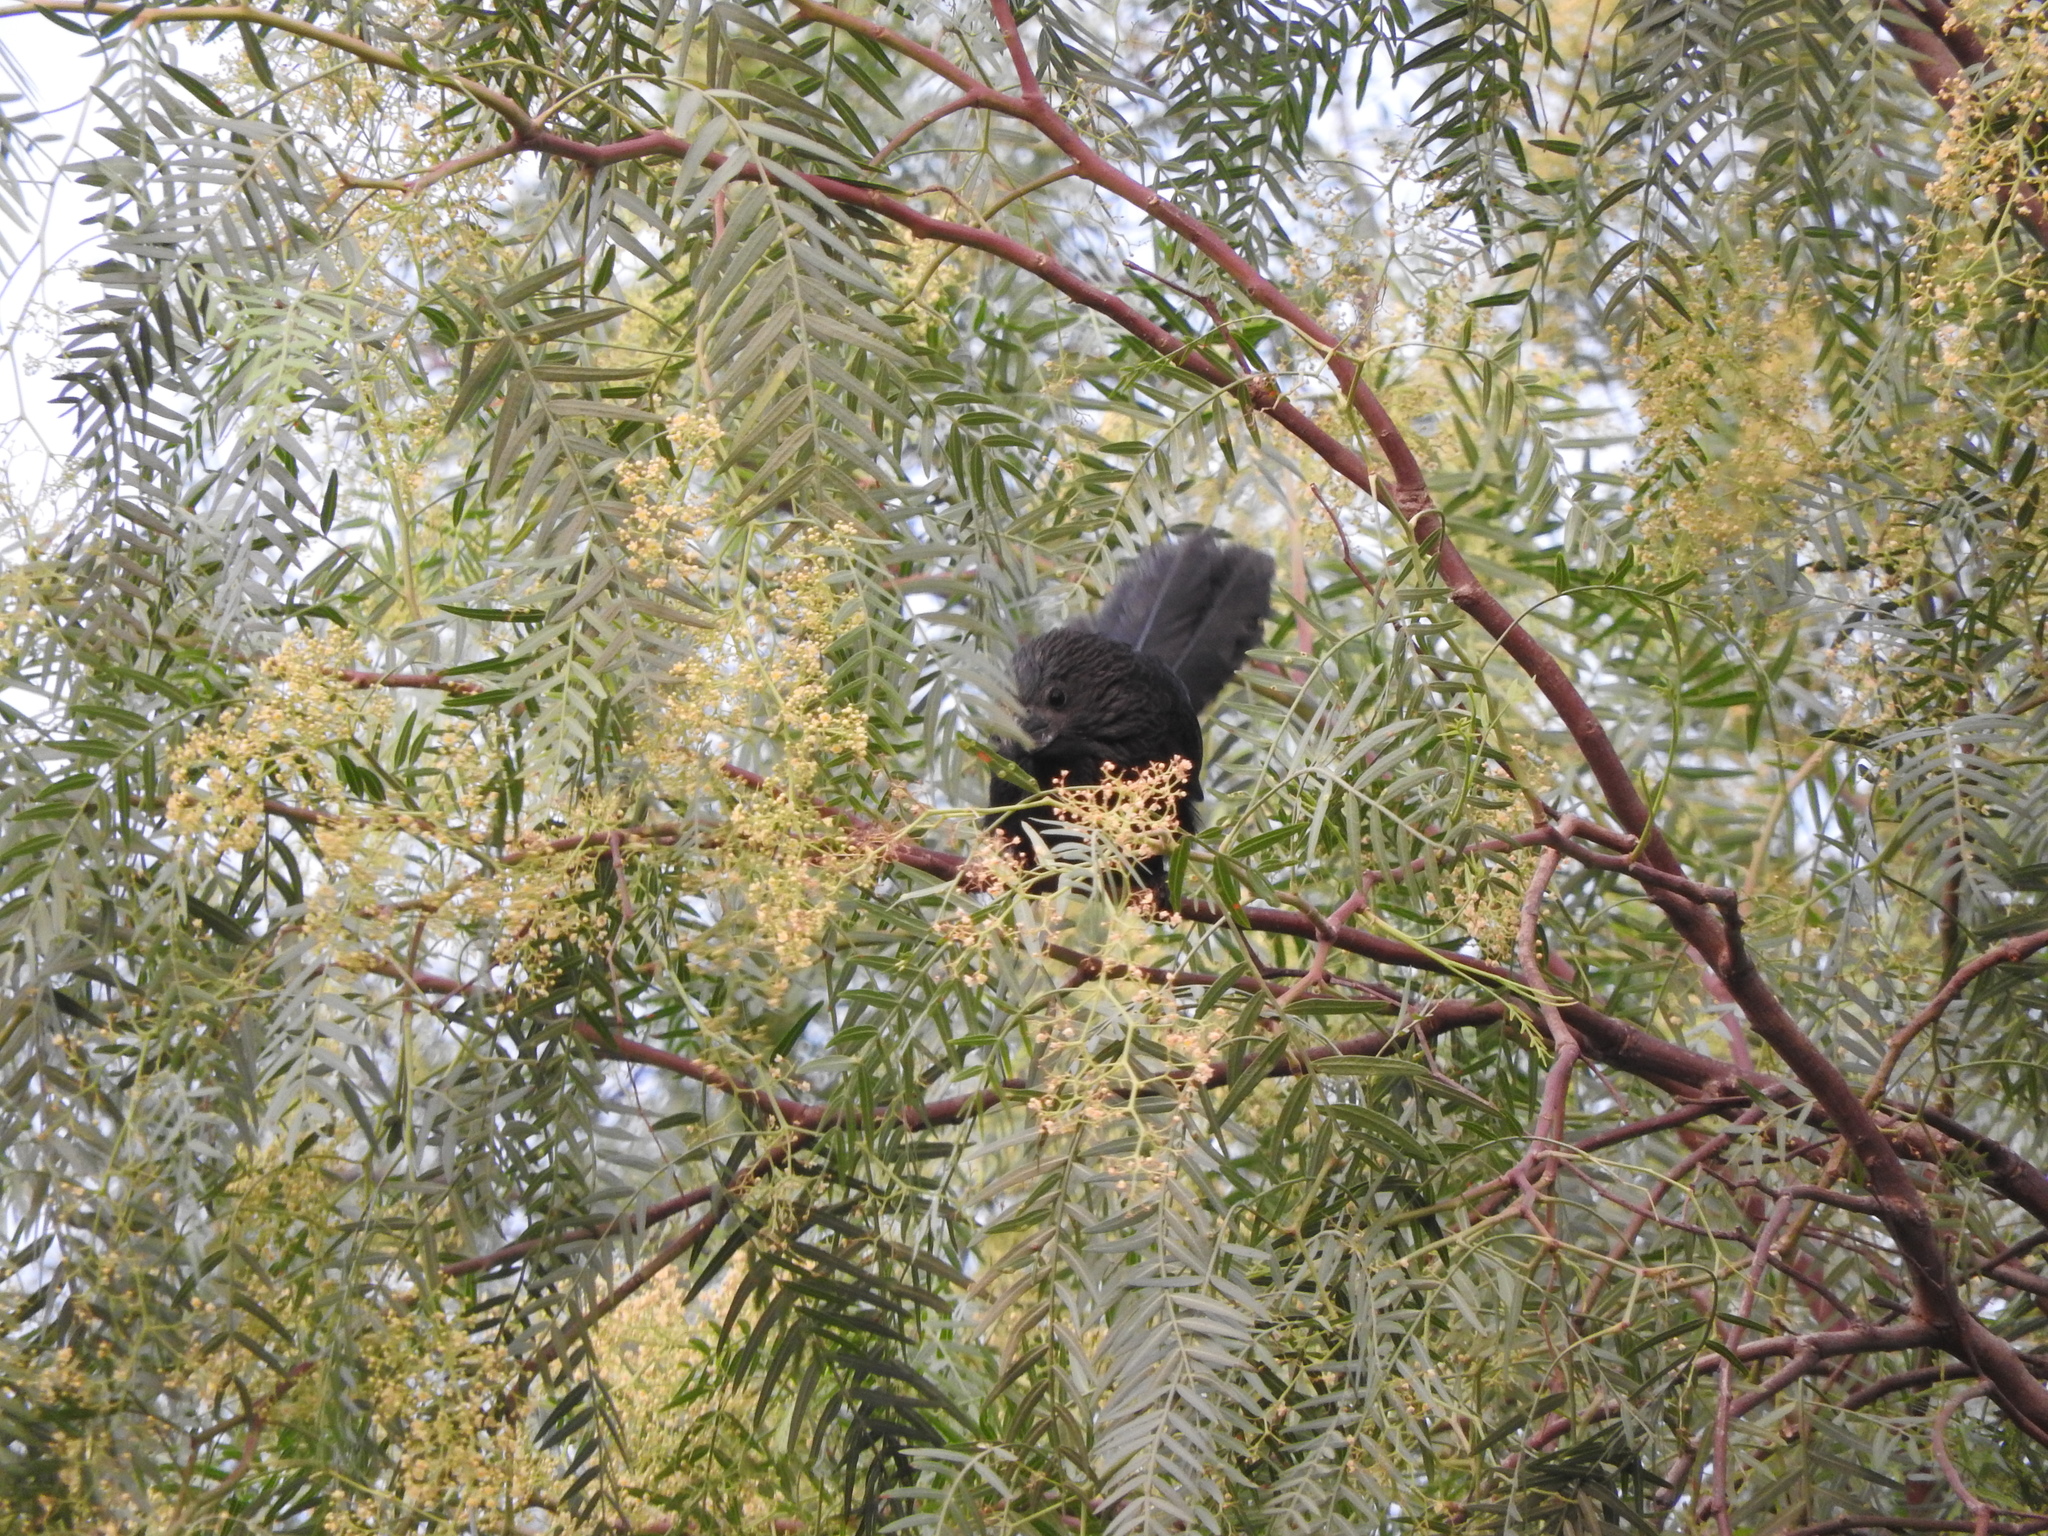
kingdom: Animalia
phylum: Chordata
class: Aves
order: Cuculiformes
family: Cuculidae
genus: Crotophaga
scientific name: Crotophaga sulcirostris
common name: Groove-billed ani
